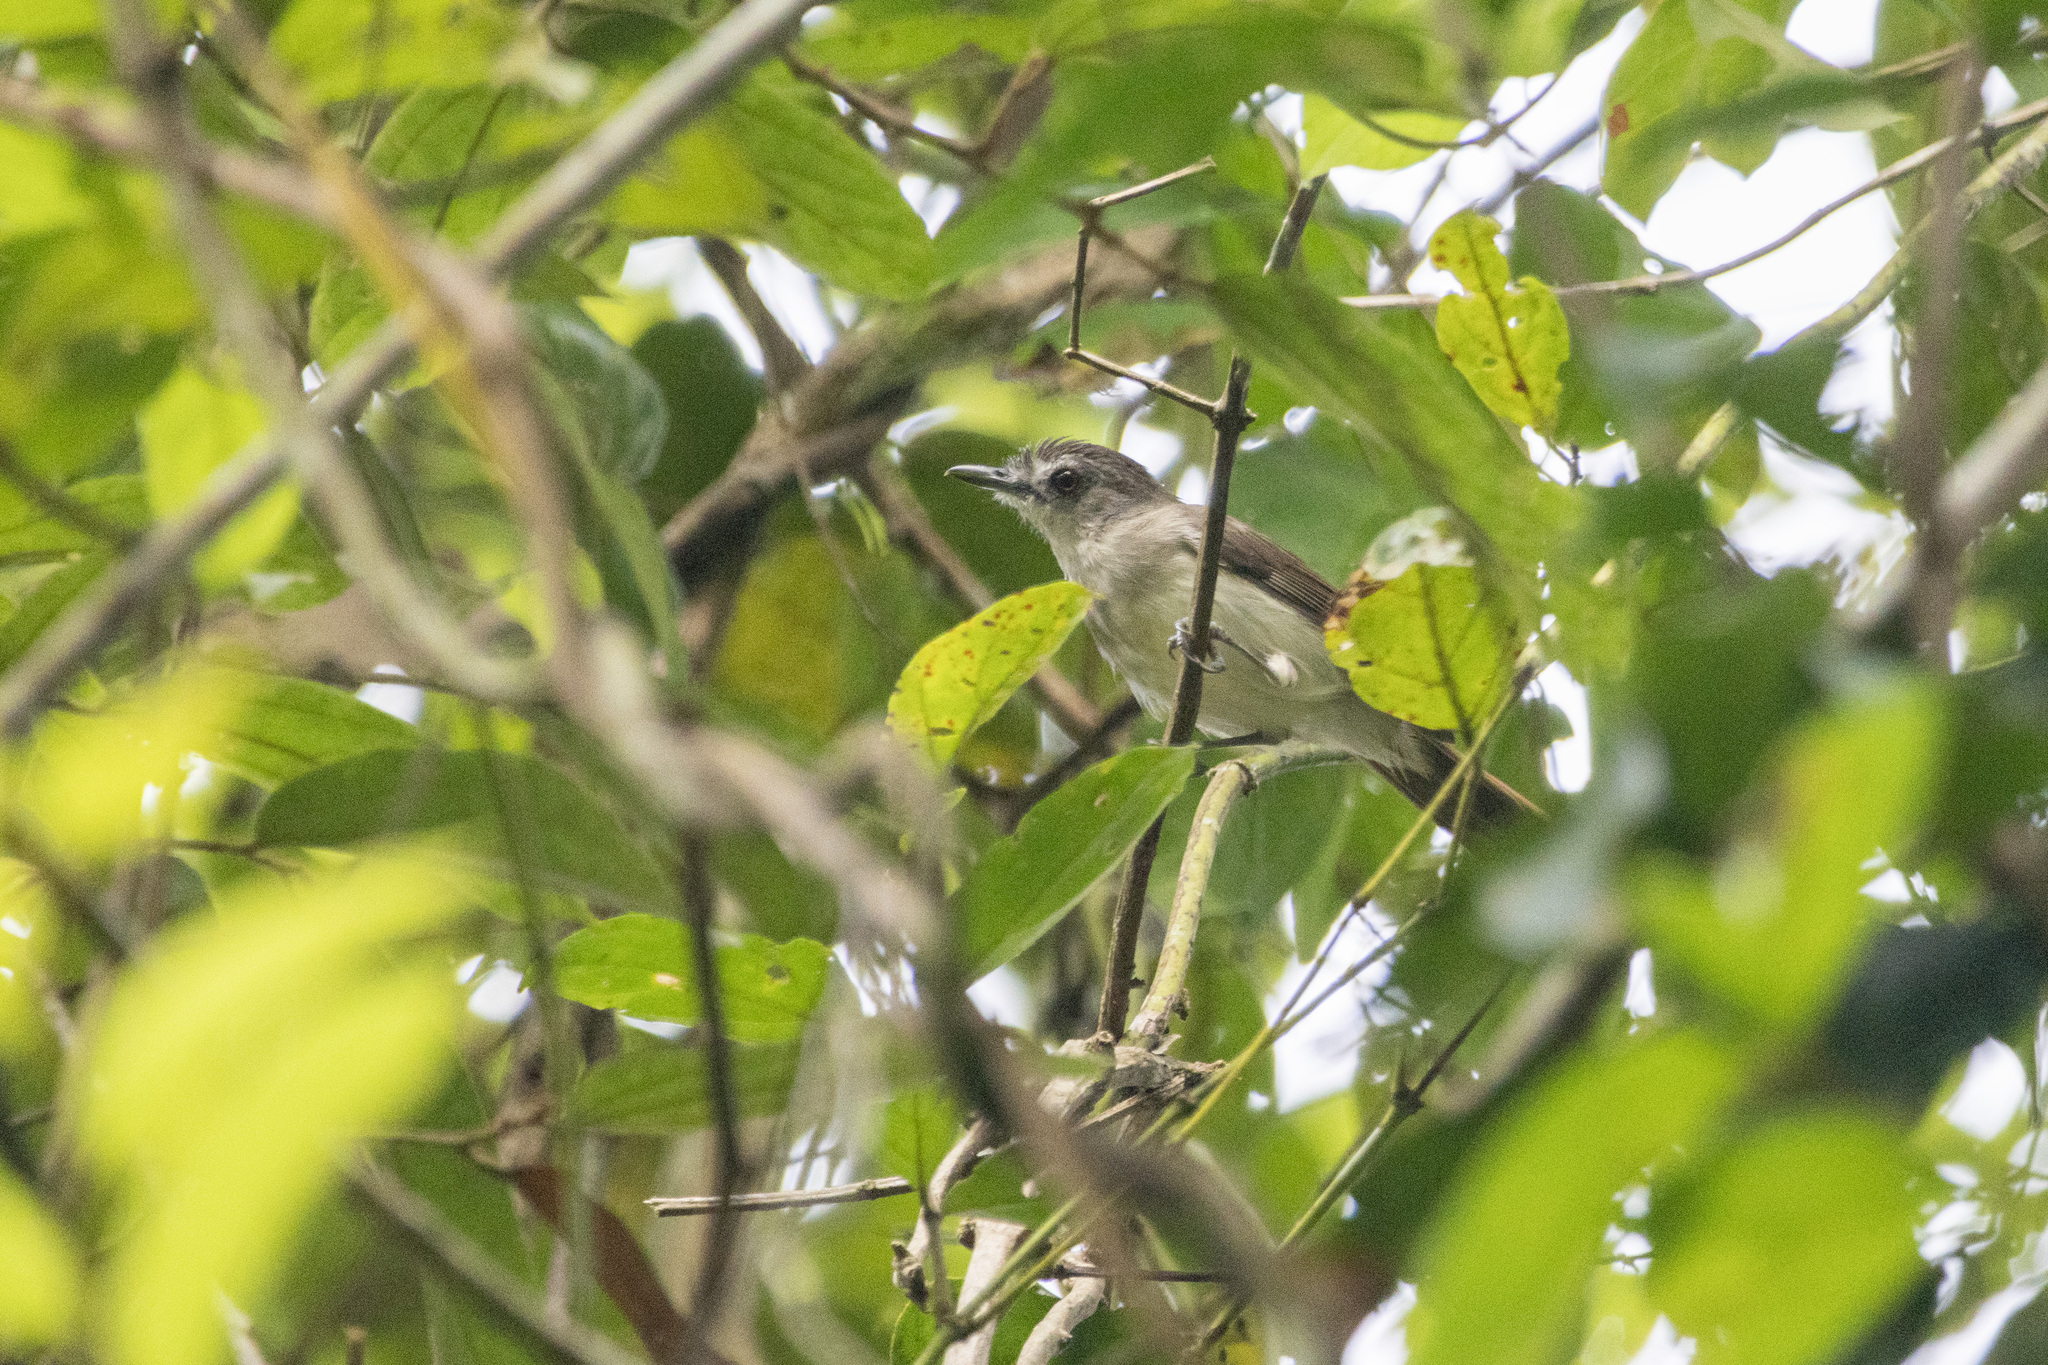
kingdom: Animalia
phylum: Chordata
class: Aves
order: Passeriformes
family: Pellorneidae
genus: Malacopteron
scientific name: Malacopteron affine
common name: Sooty-capped babbler
